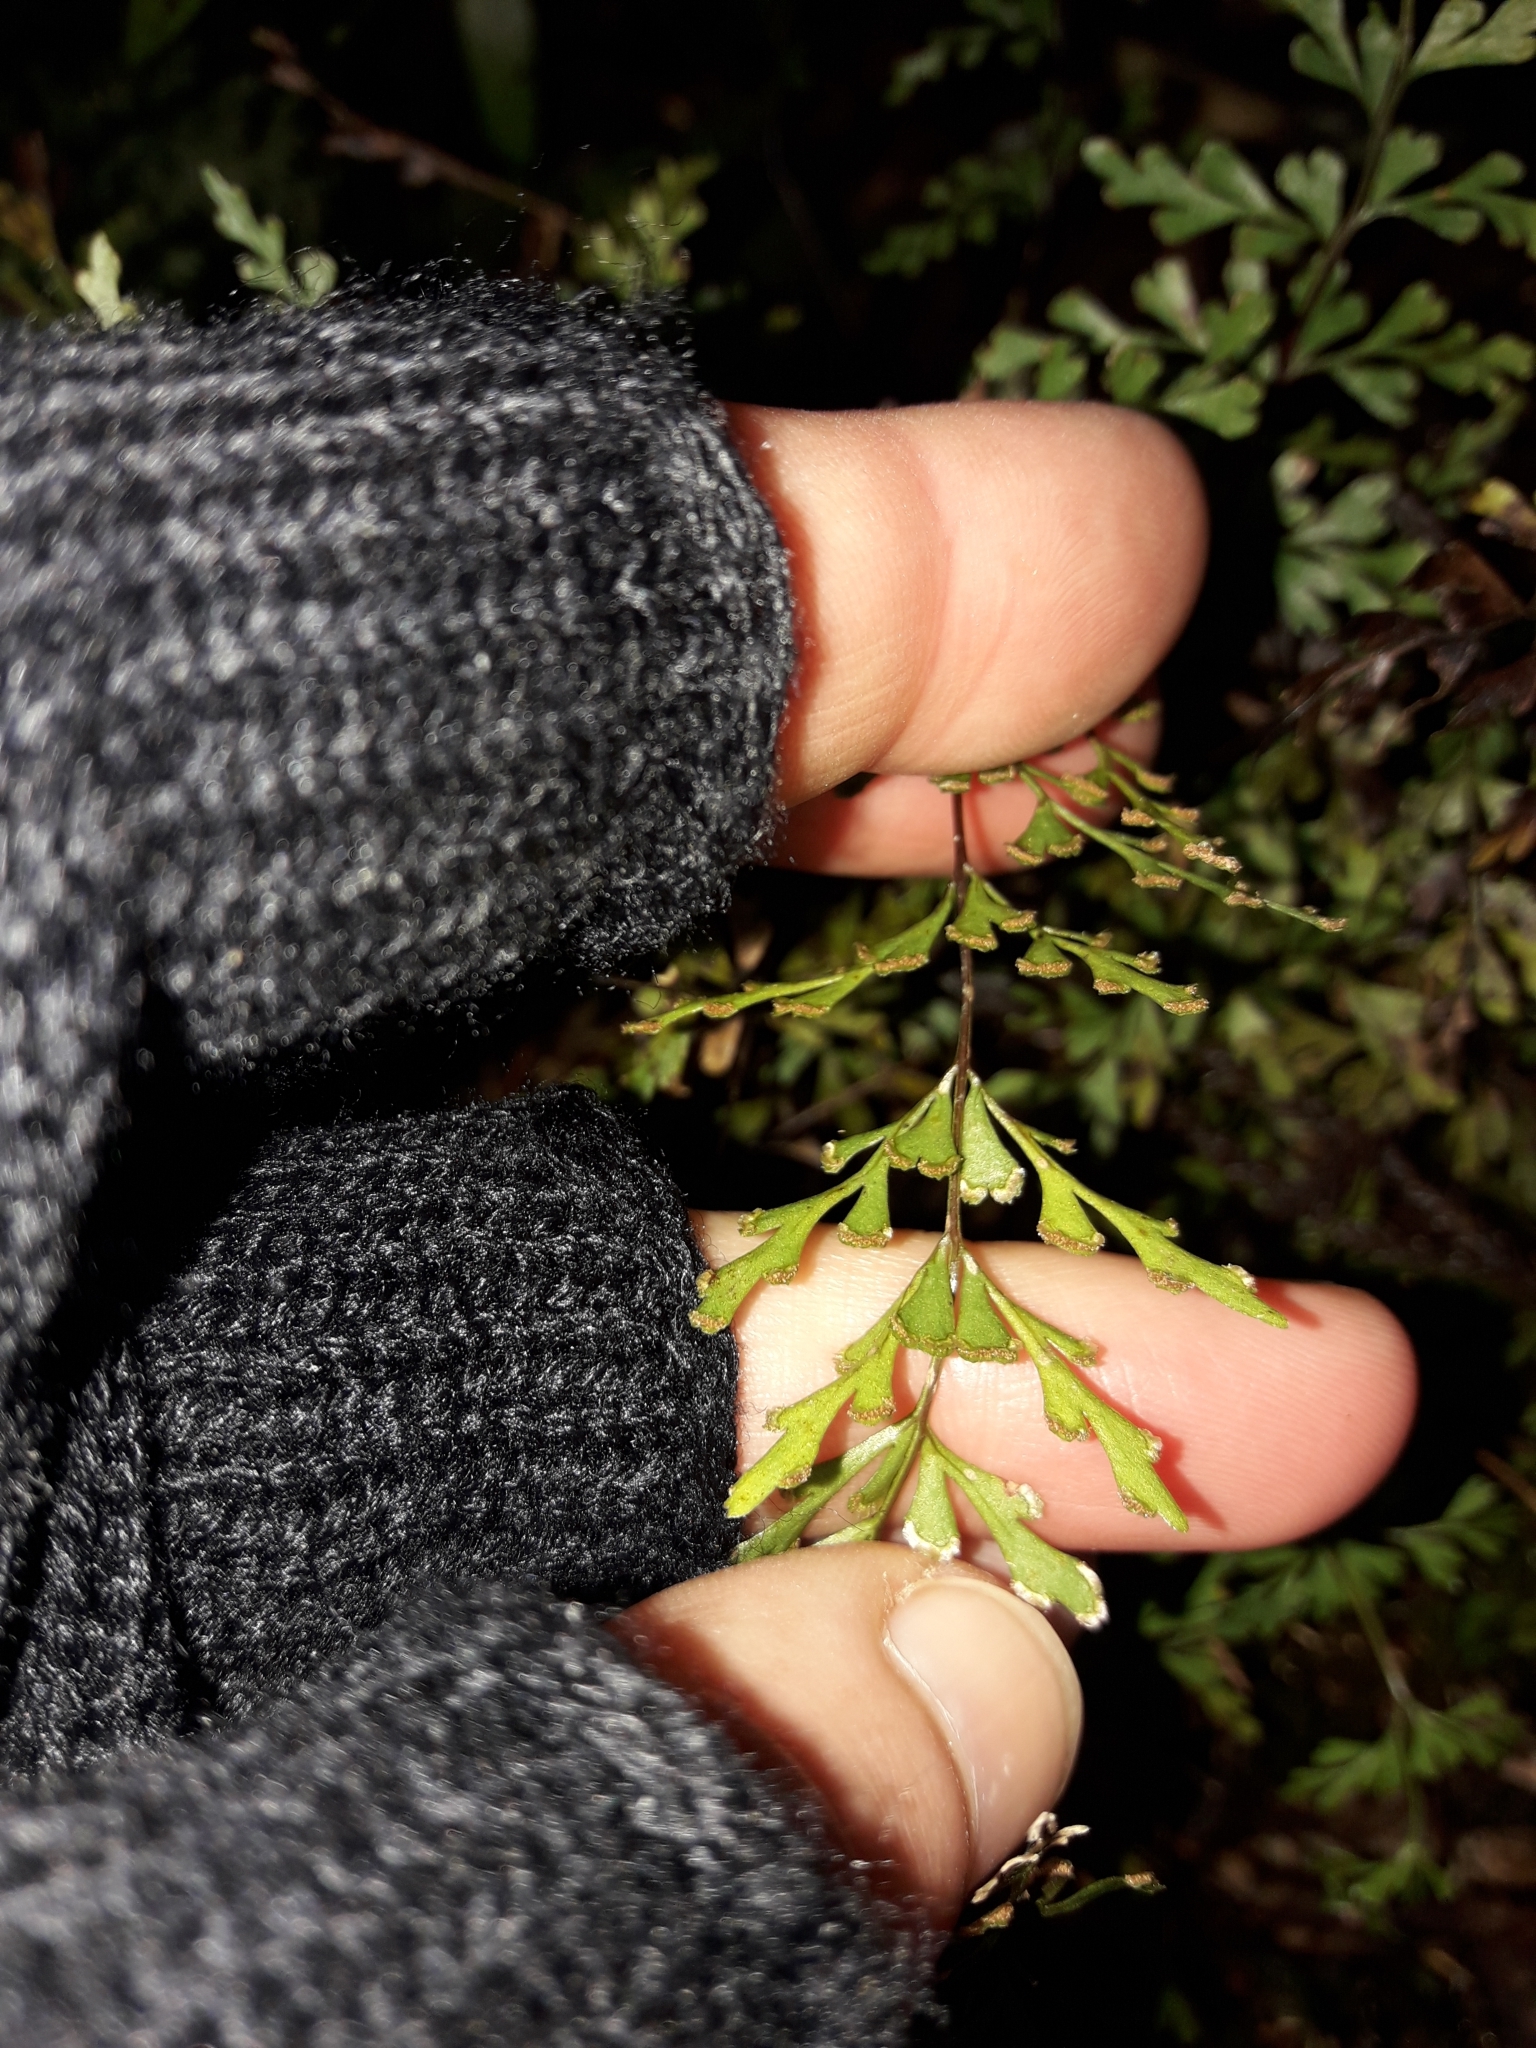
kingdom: Plantae
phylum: Tracheophyta
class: Polypodiopsida
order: Polypodiales
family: Lindsaeaceae
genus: Lindsaea
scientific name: Lindsaea trichomanoides
